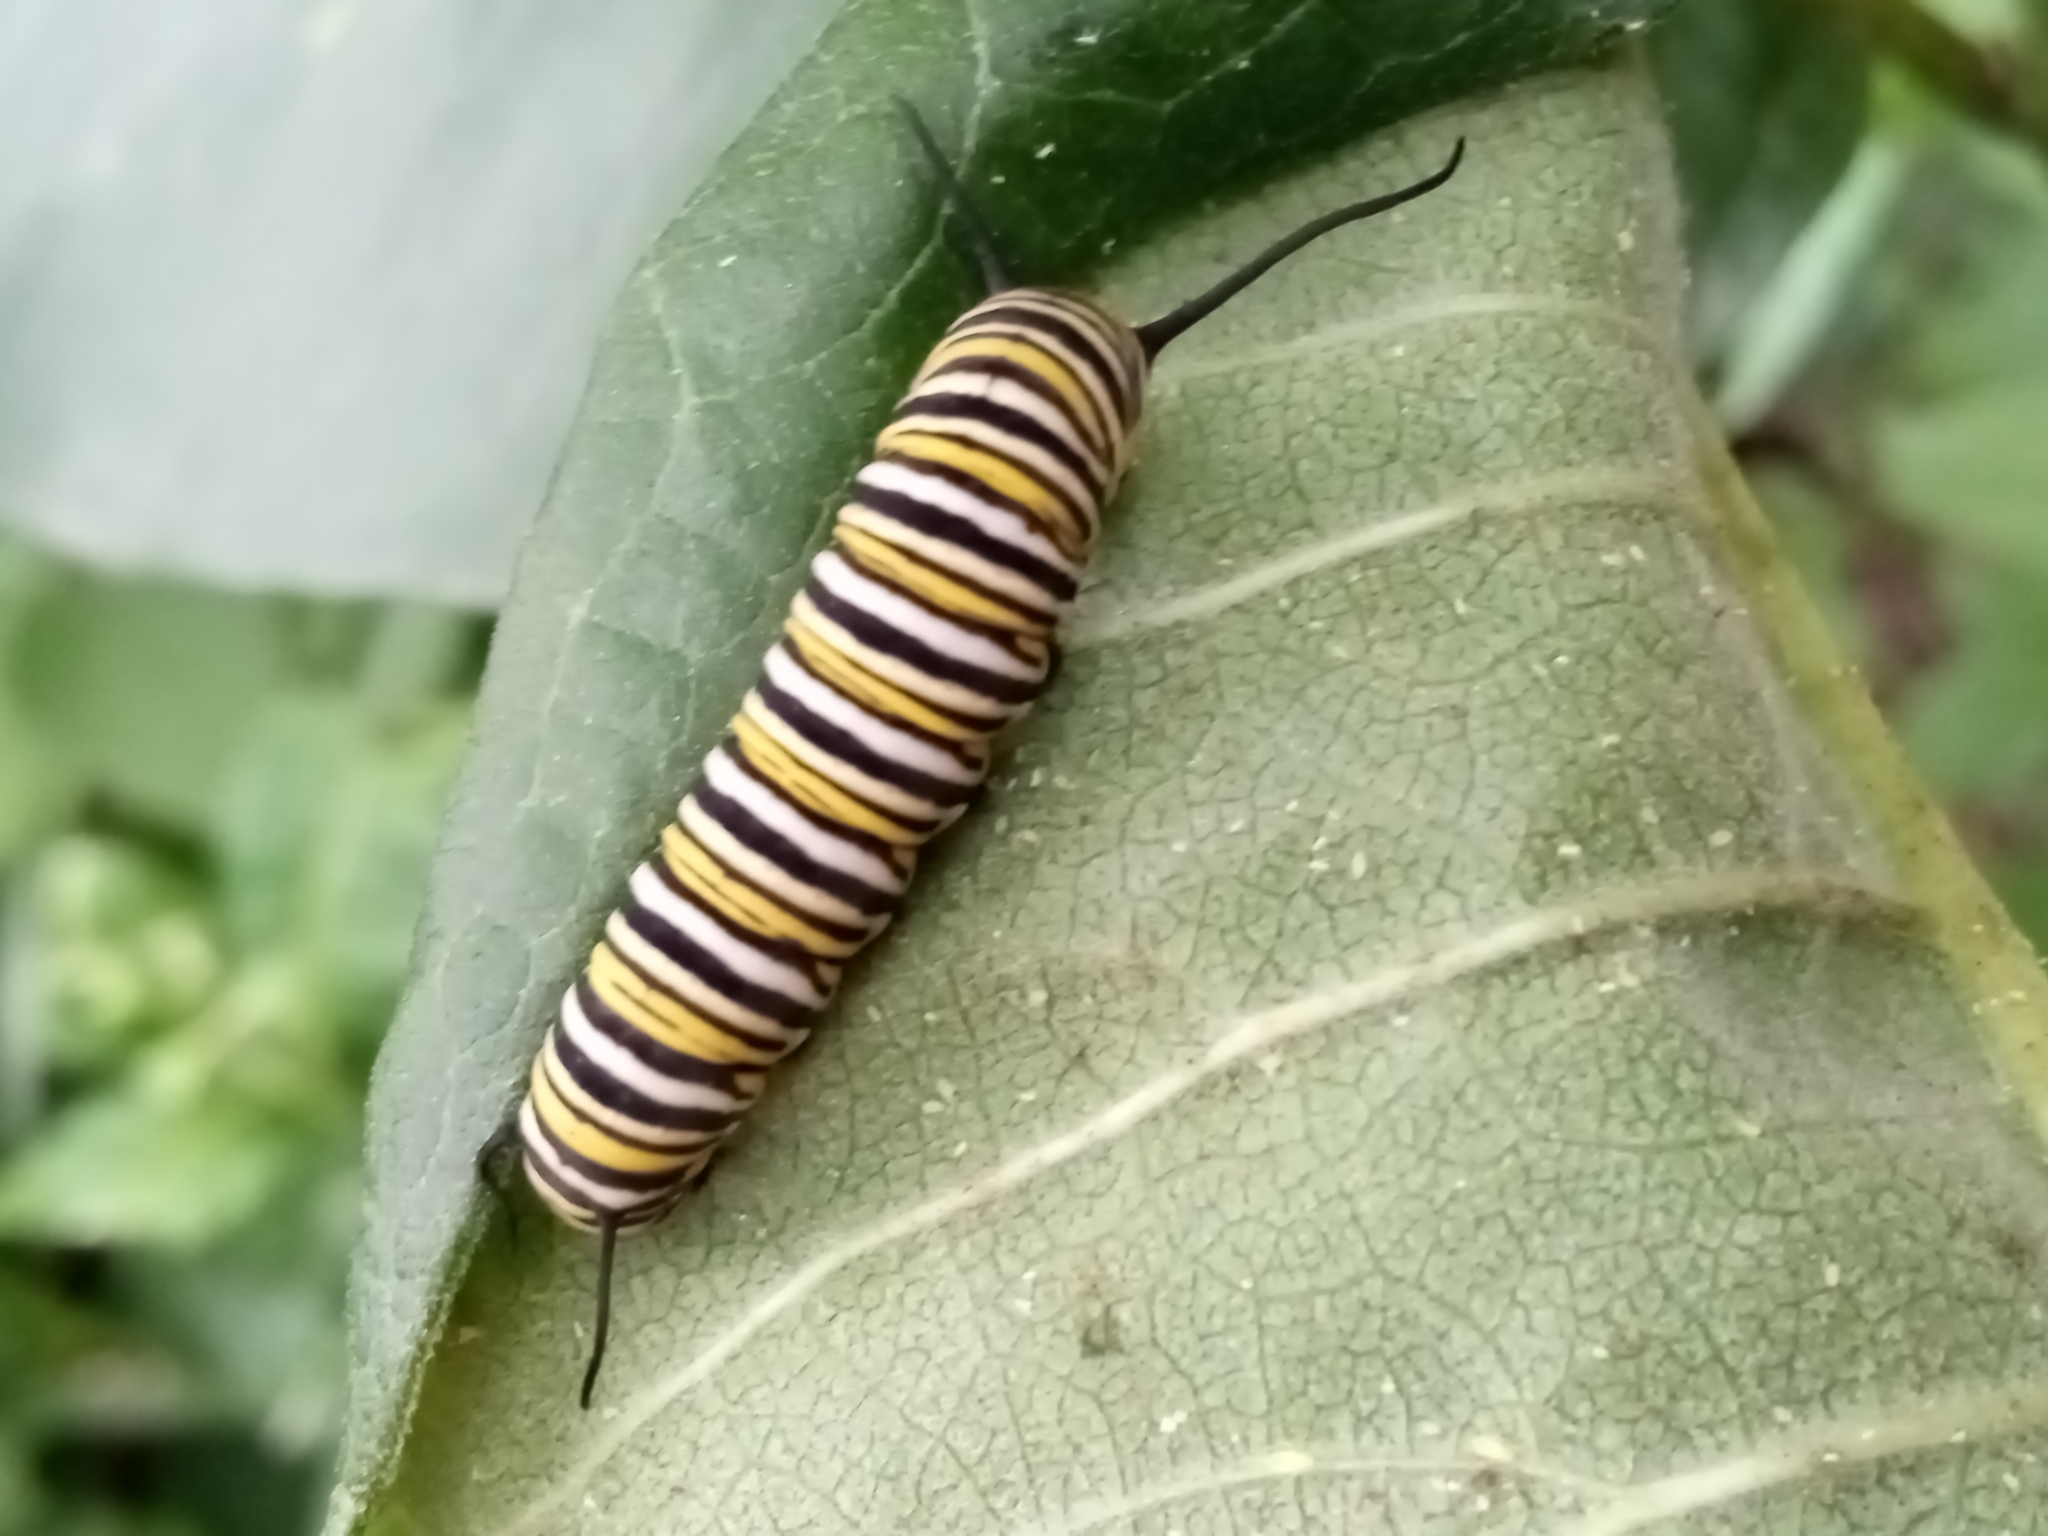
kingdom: Animalia
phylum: Arthropoda
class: Insecta
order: Lepidoptera
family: Nymphalidae
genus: Danaus
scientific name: Danaus plexippus
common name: Monarch
